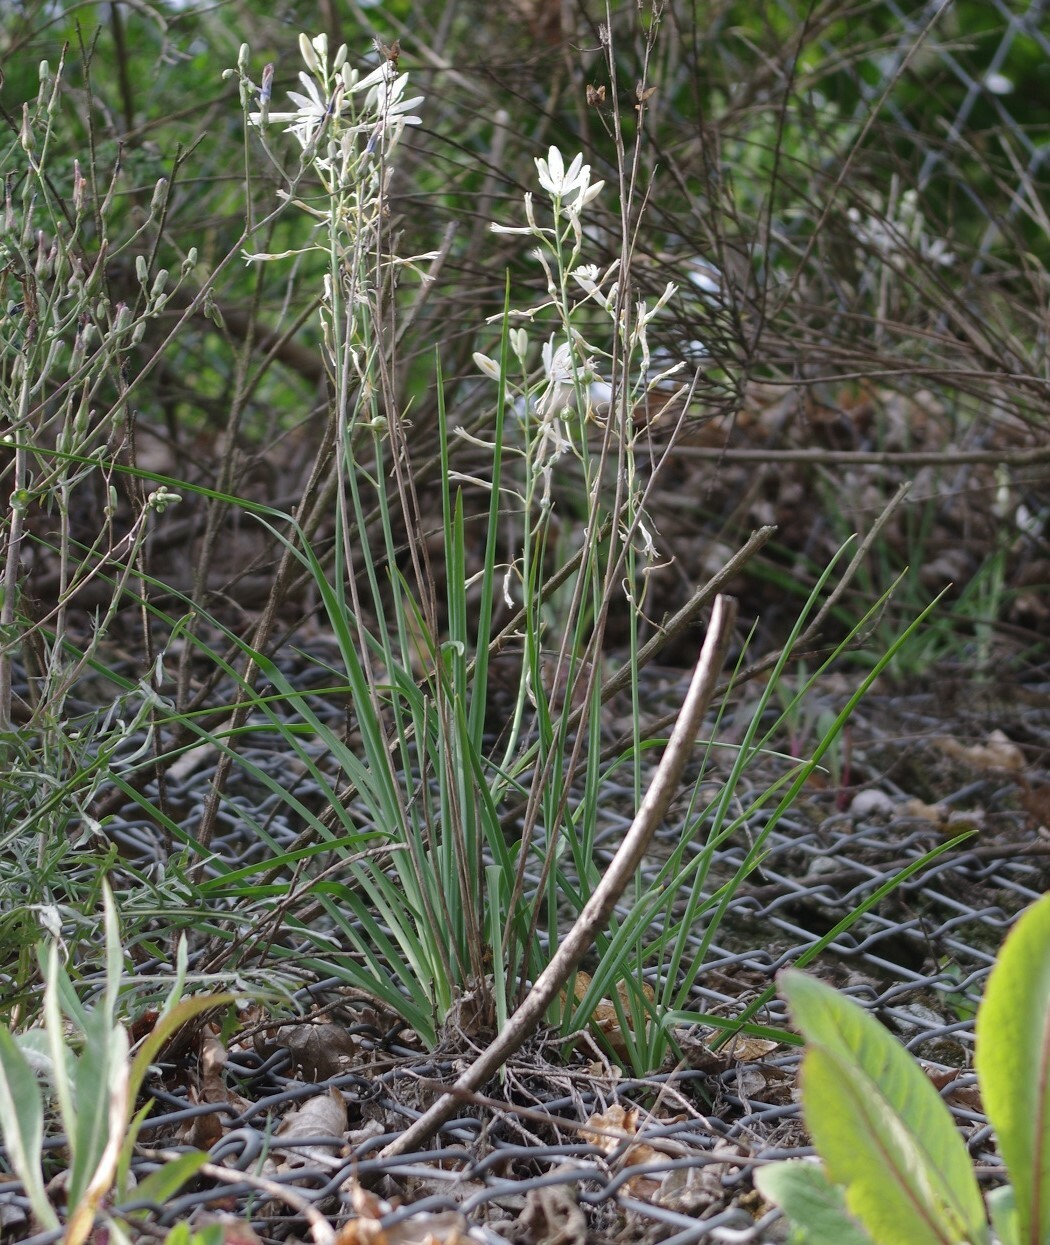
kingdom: Plantae
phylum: Tracheophyta
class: Liliopsida
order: Asparagales
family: Asparagaceae
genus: Anthericum
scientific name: Anthericum liliago
